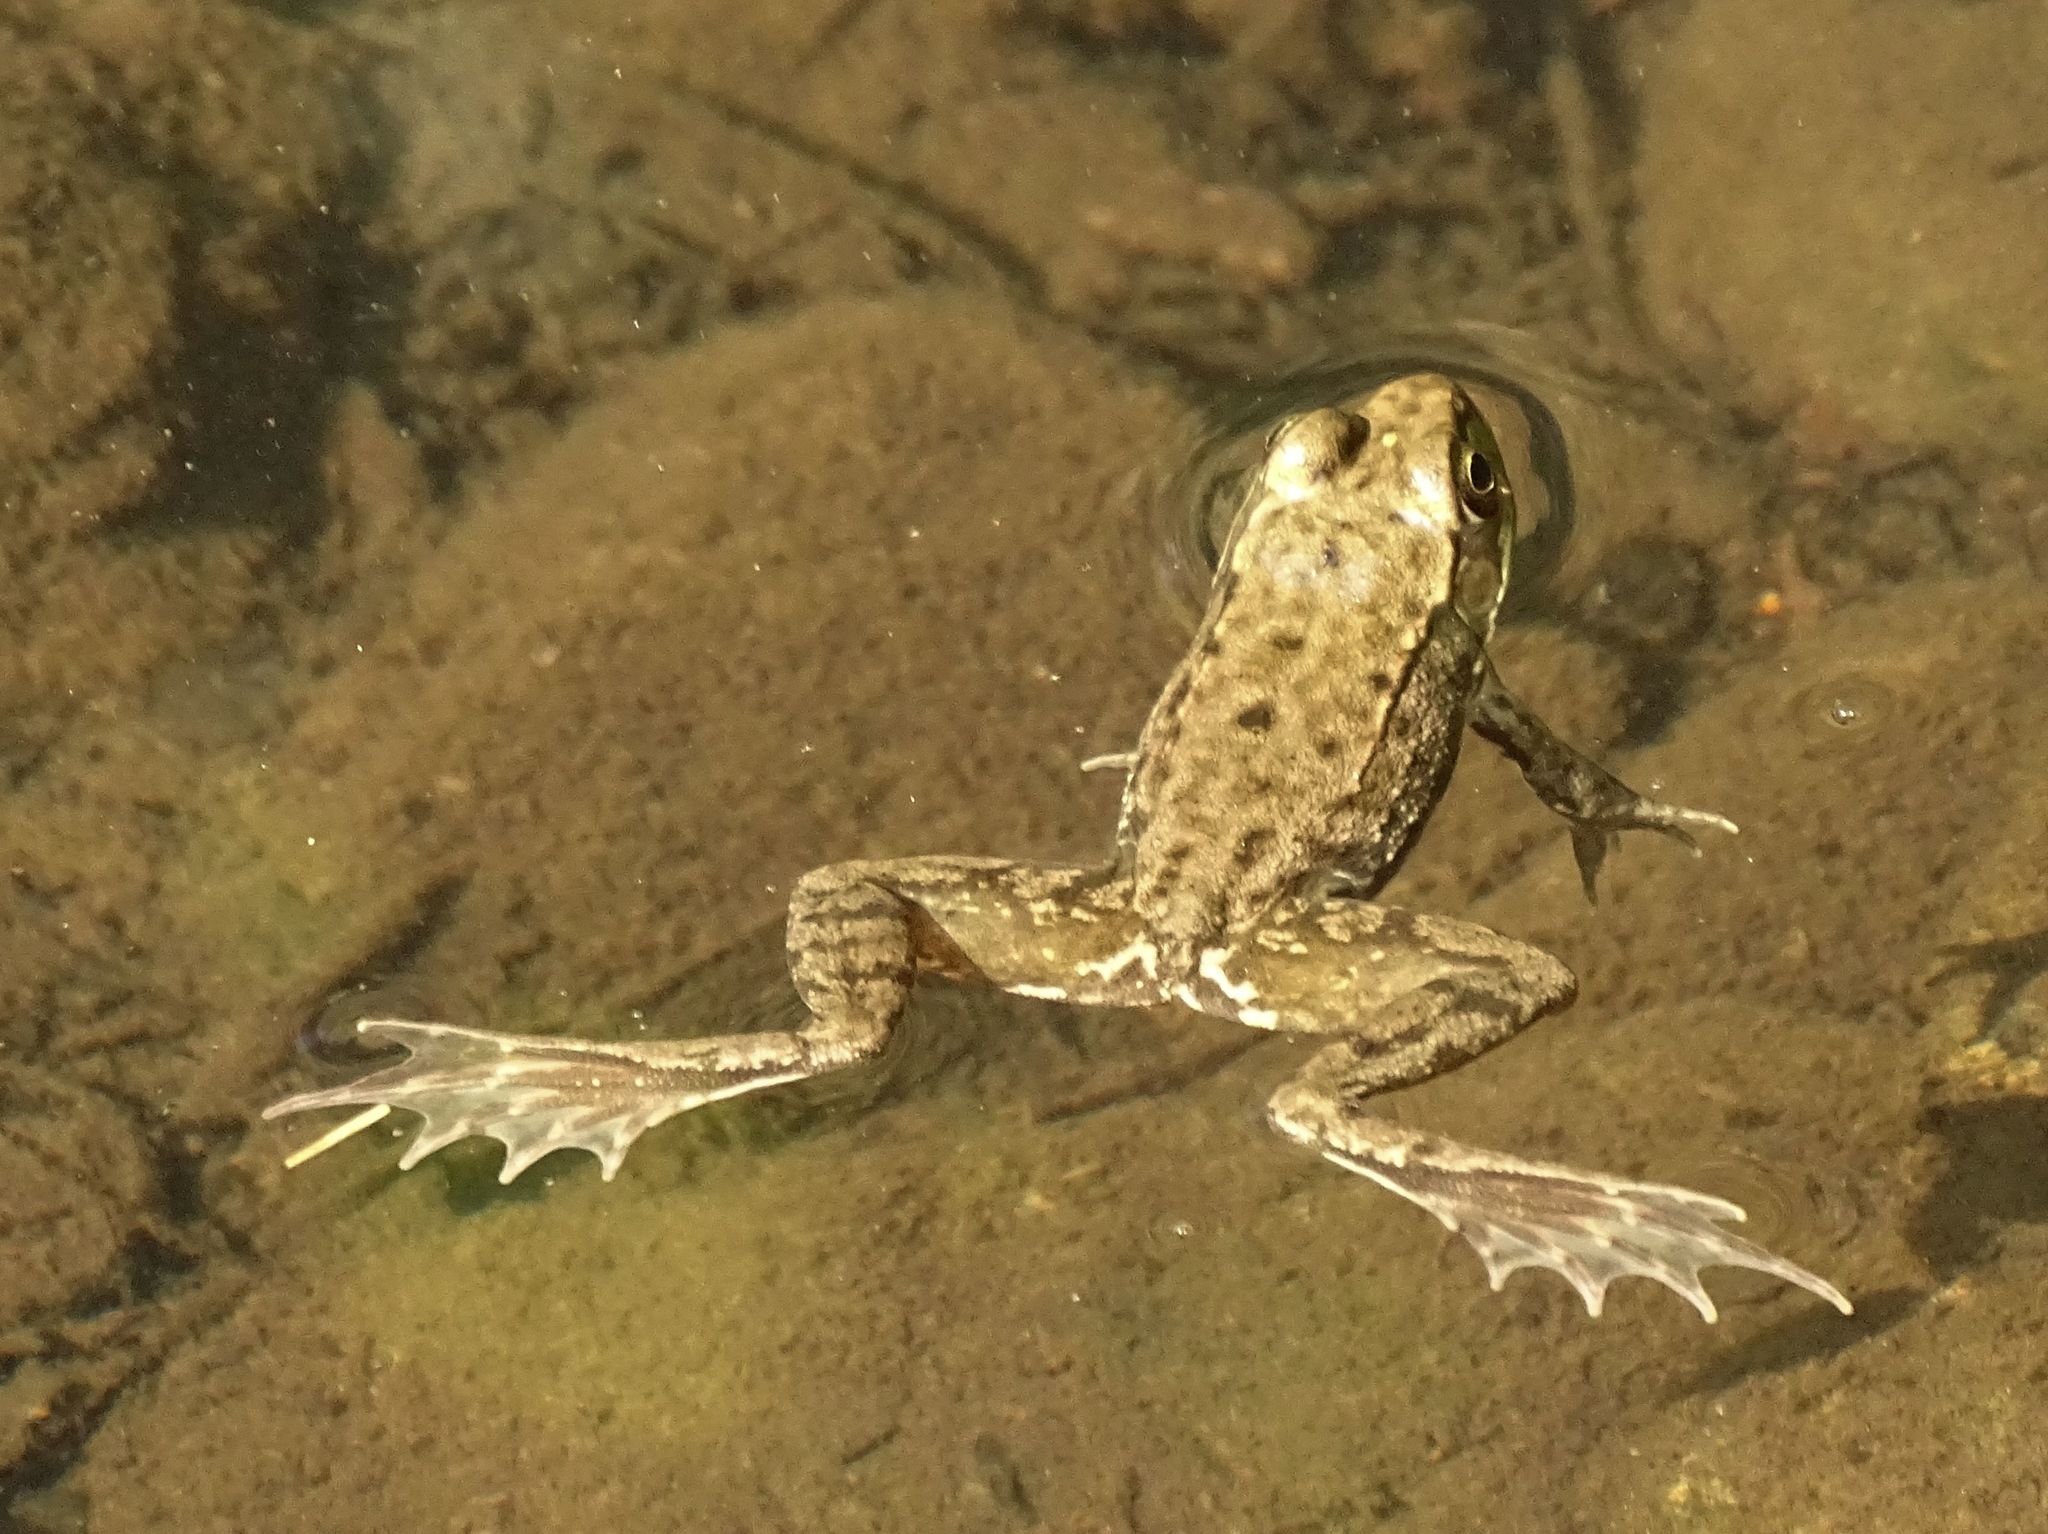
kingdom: Animalia
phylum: Chordata
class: Amphibia
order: Anura
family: Ranidae
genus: Lithobates
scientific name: Lithobates clamitans
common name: Green frog
